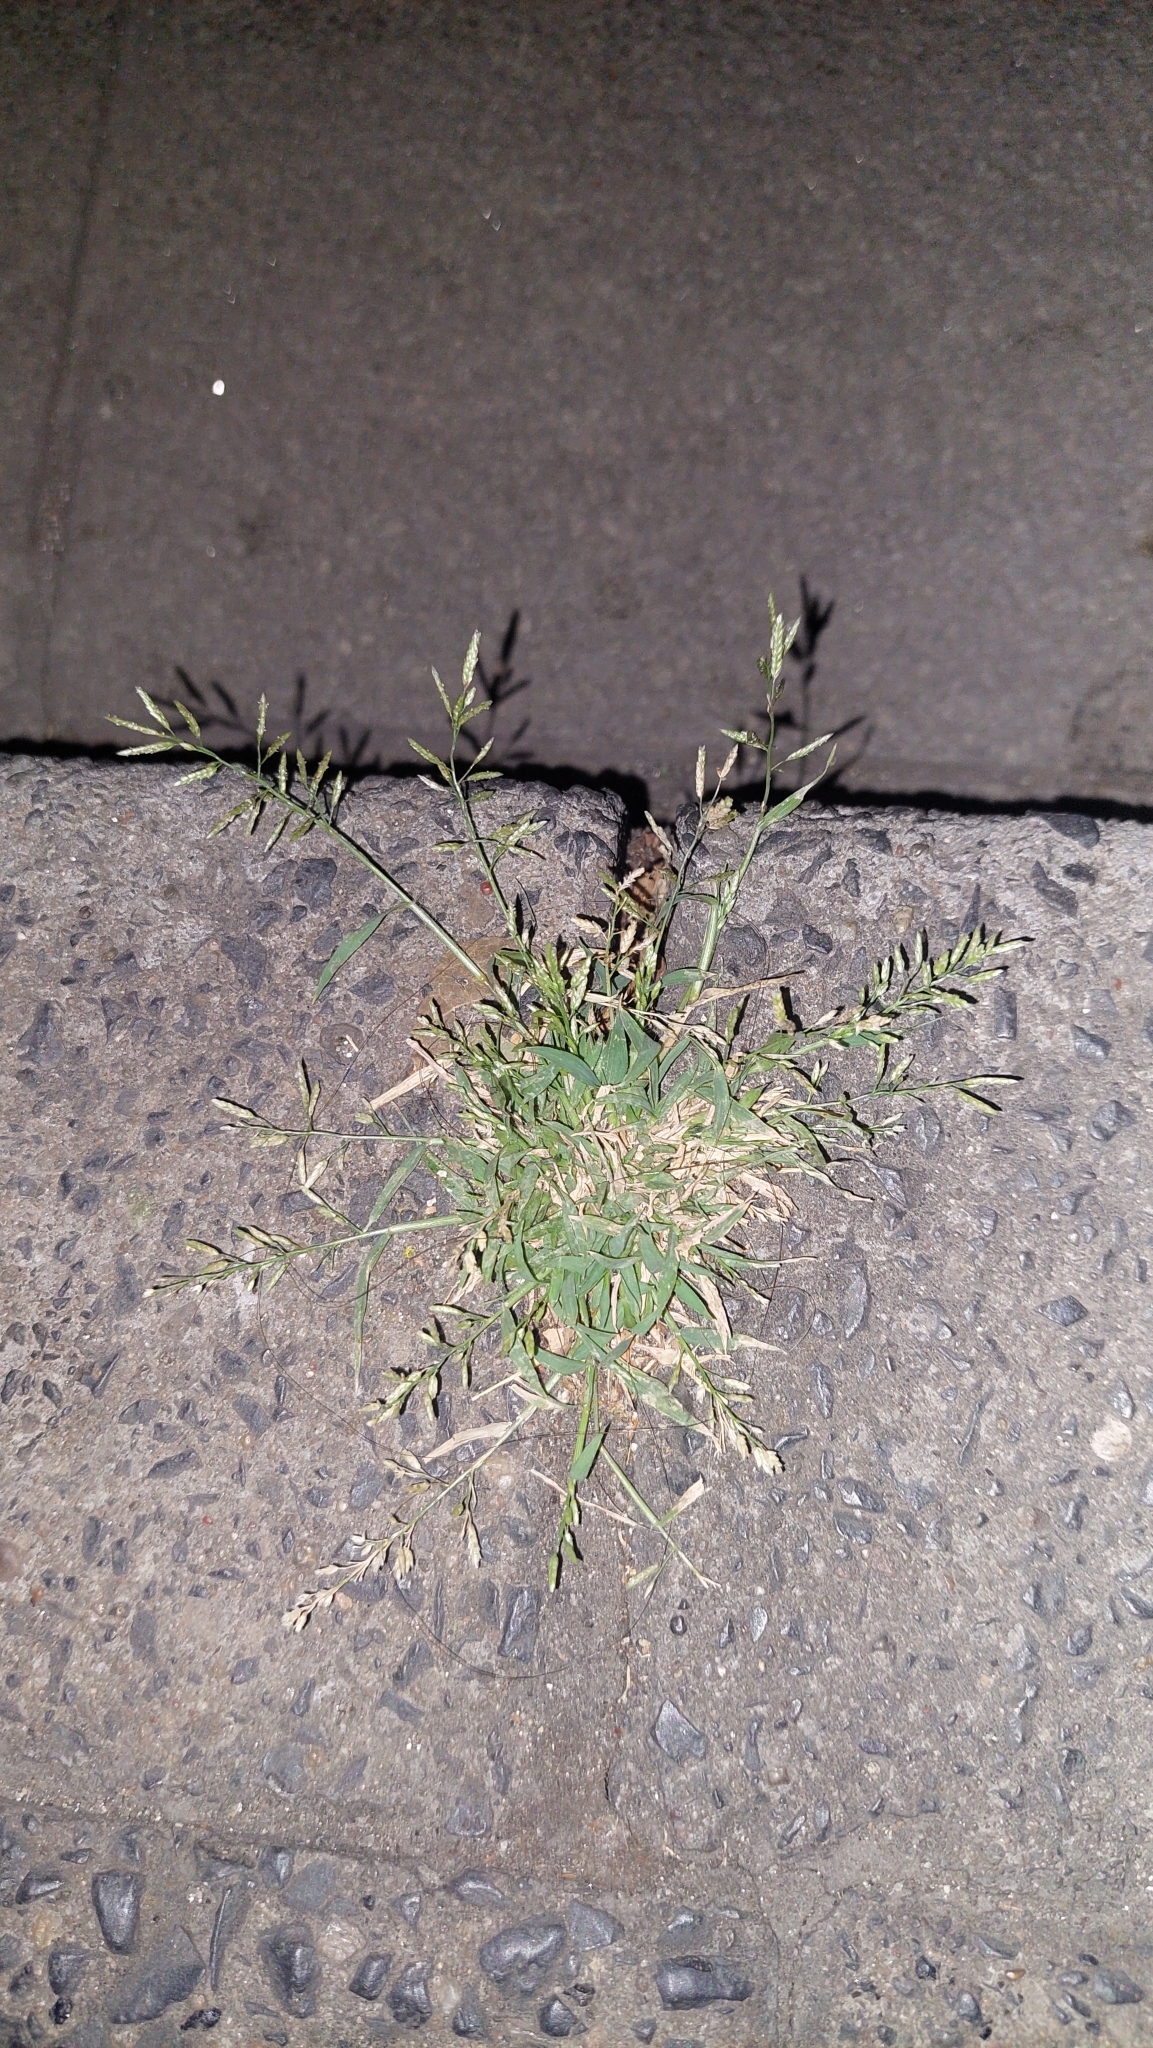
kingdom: Plantae
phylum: Tracheophyta
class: Liliopsida
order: Poales
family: Poaceae
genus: Eragrostis
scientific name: Eragrostis minor
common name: Small love-grass
